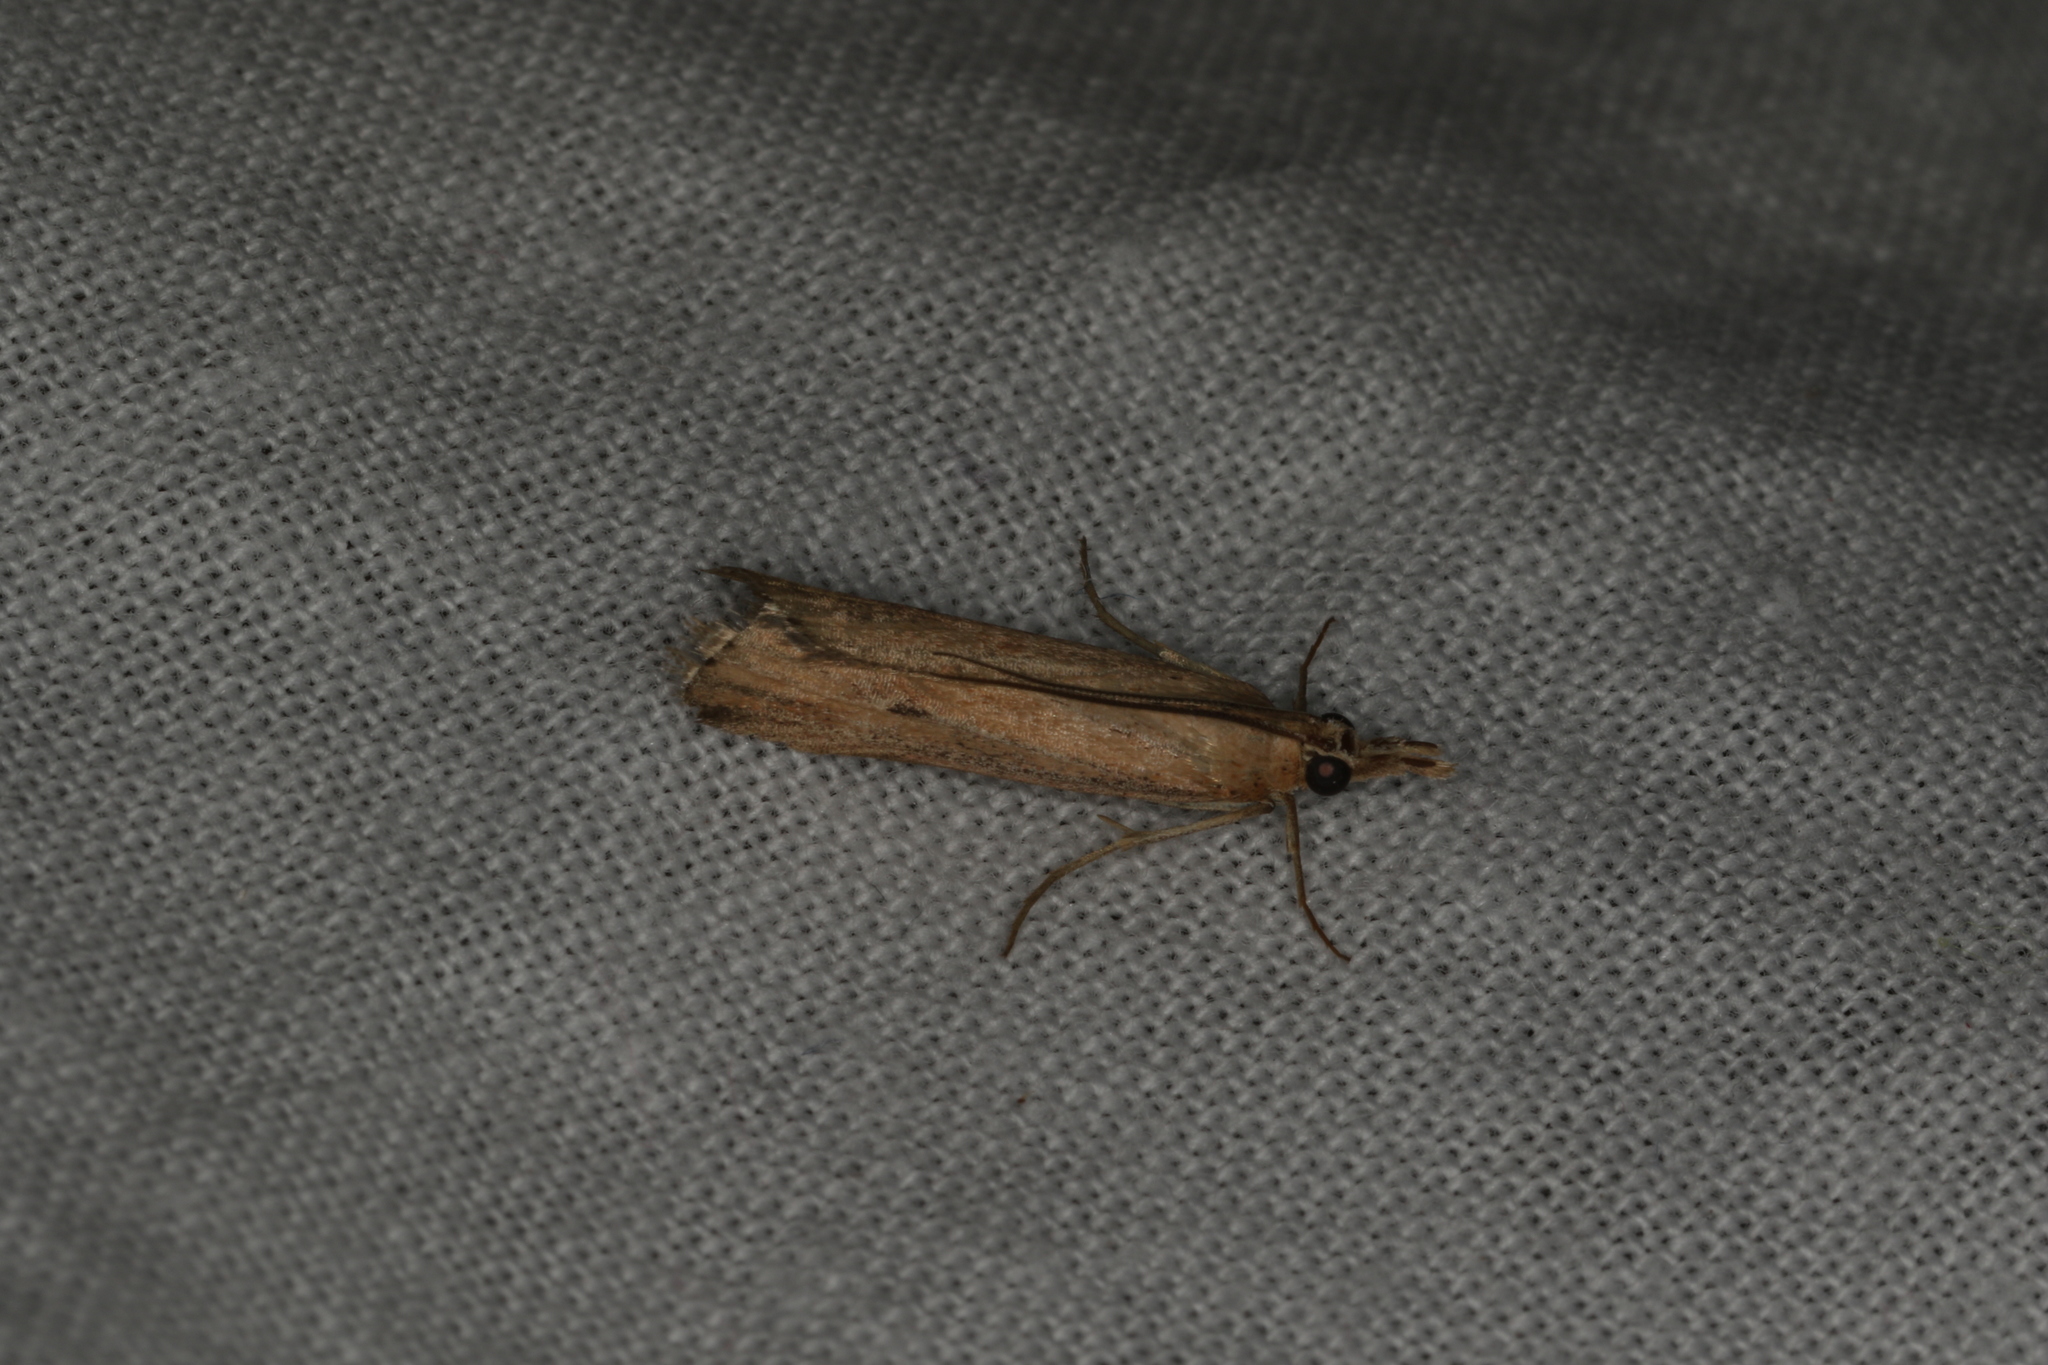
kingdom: Animalia
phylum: Arthropoda
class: Insecta
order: Lepidoptera
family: Pyralidae
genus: Faveria
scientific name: Faveria tritalis
